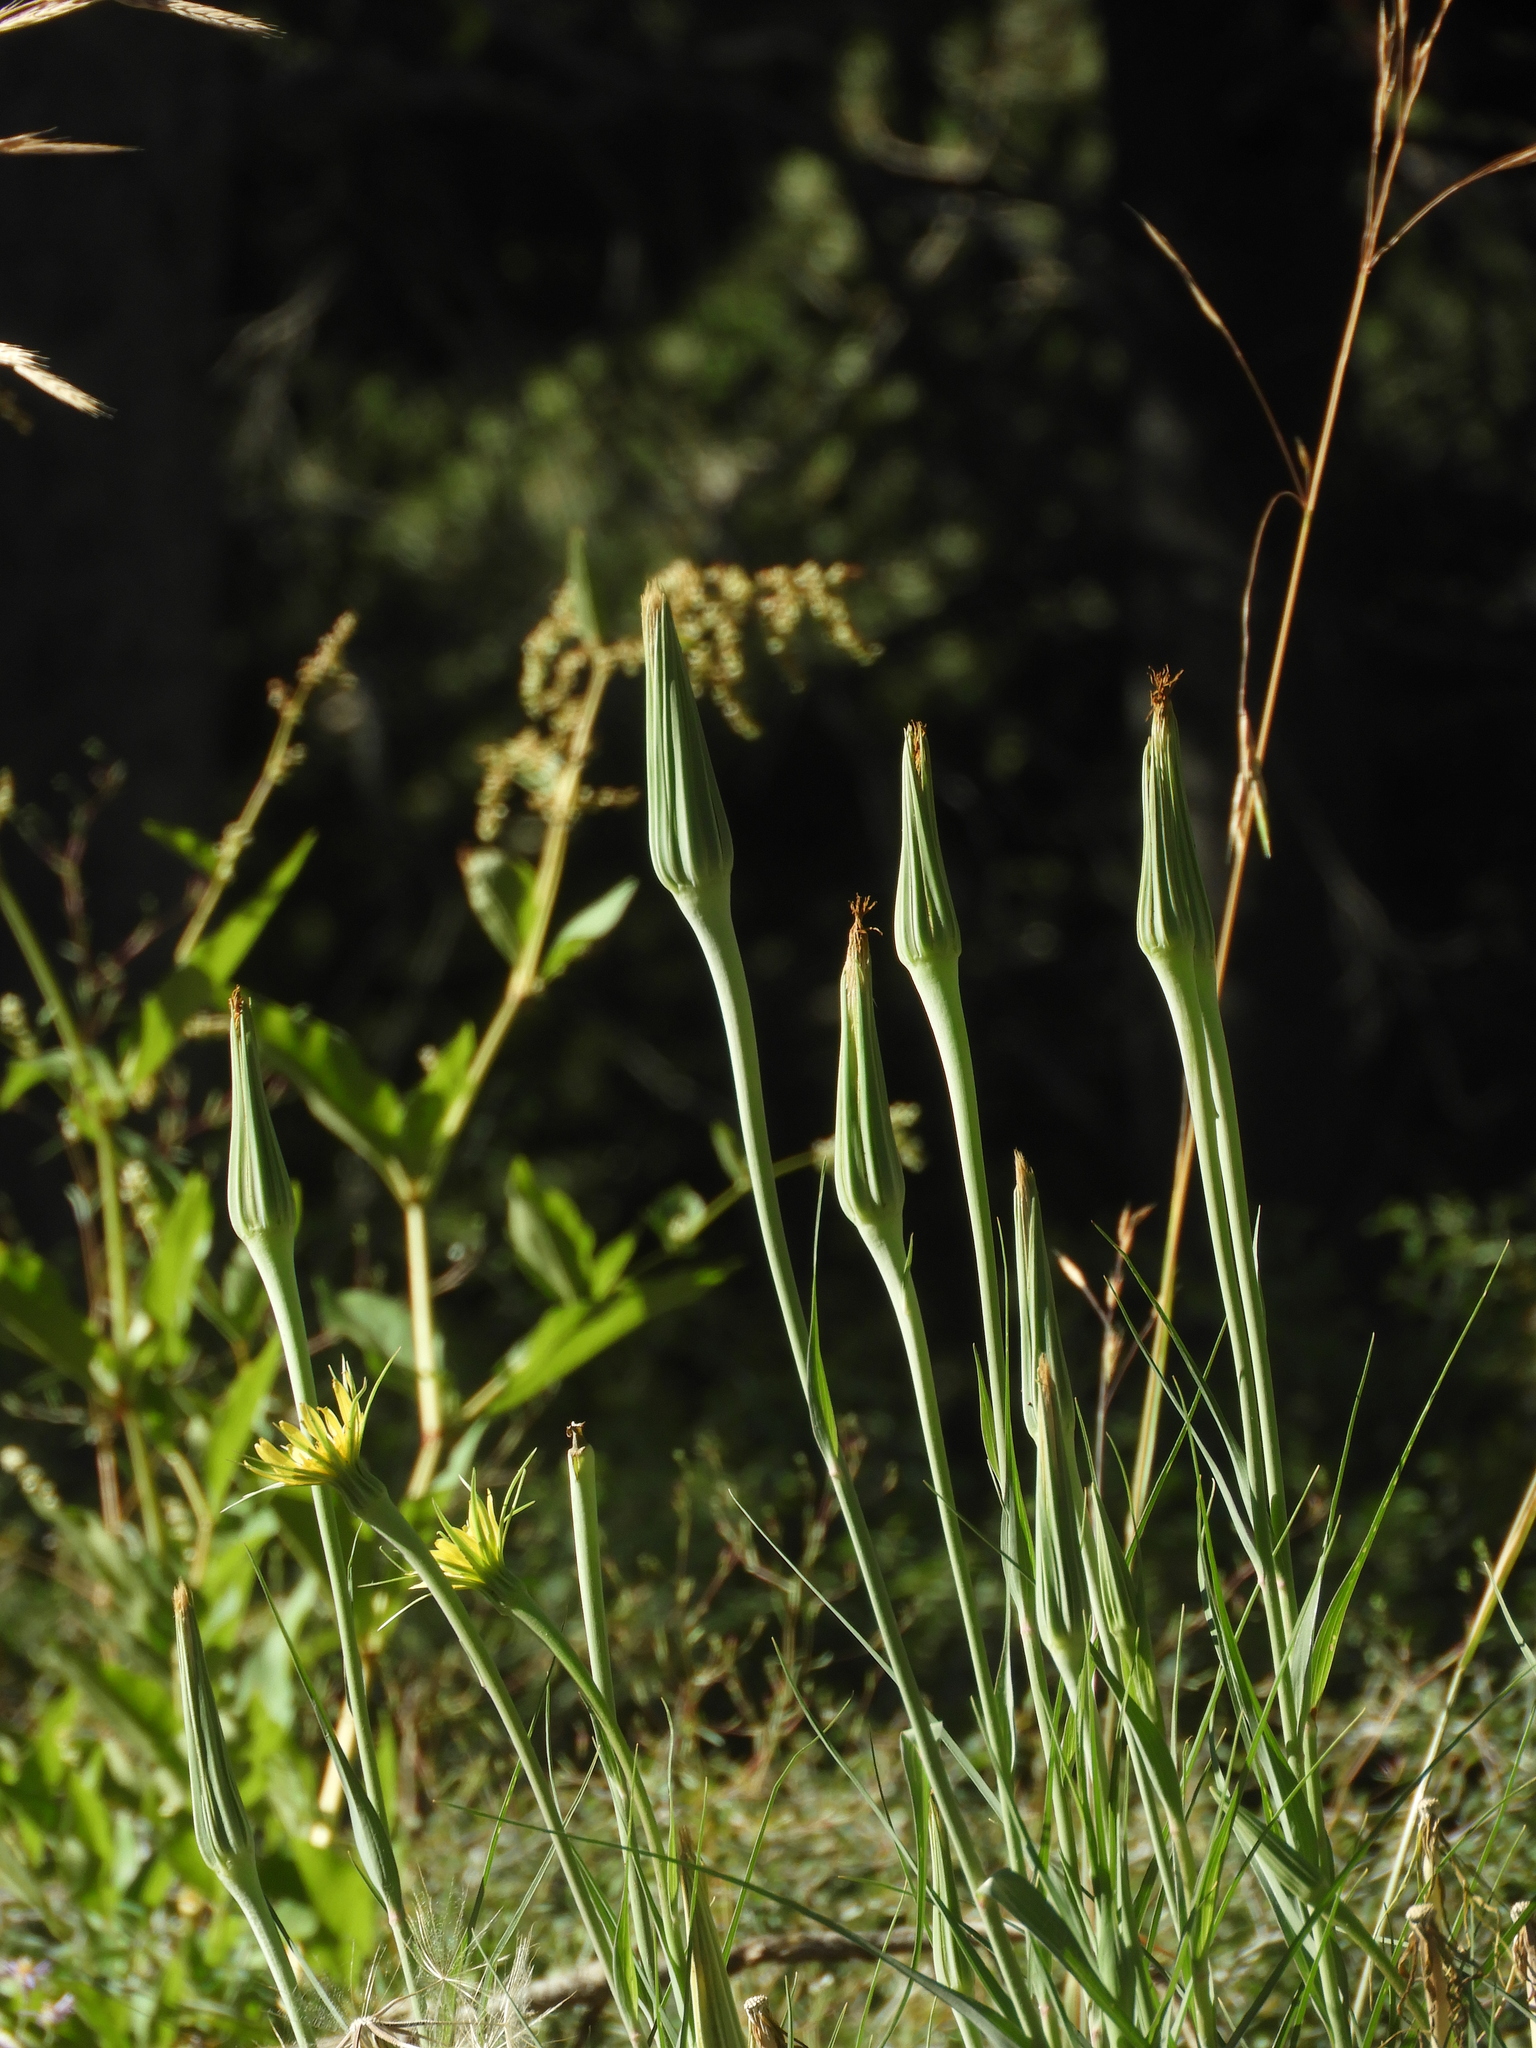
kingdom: Plantae
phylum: Tracheophyta
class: Magnoliopsida
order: Asterales
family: Asteraceae
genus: Tragopogon
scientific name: Tragopogon dubius
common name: Yellow salsify
